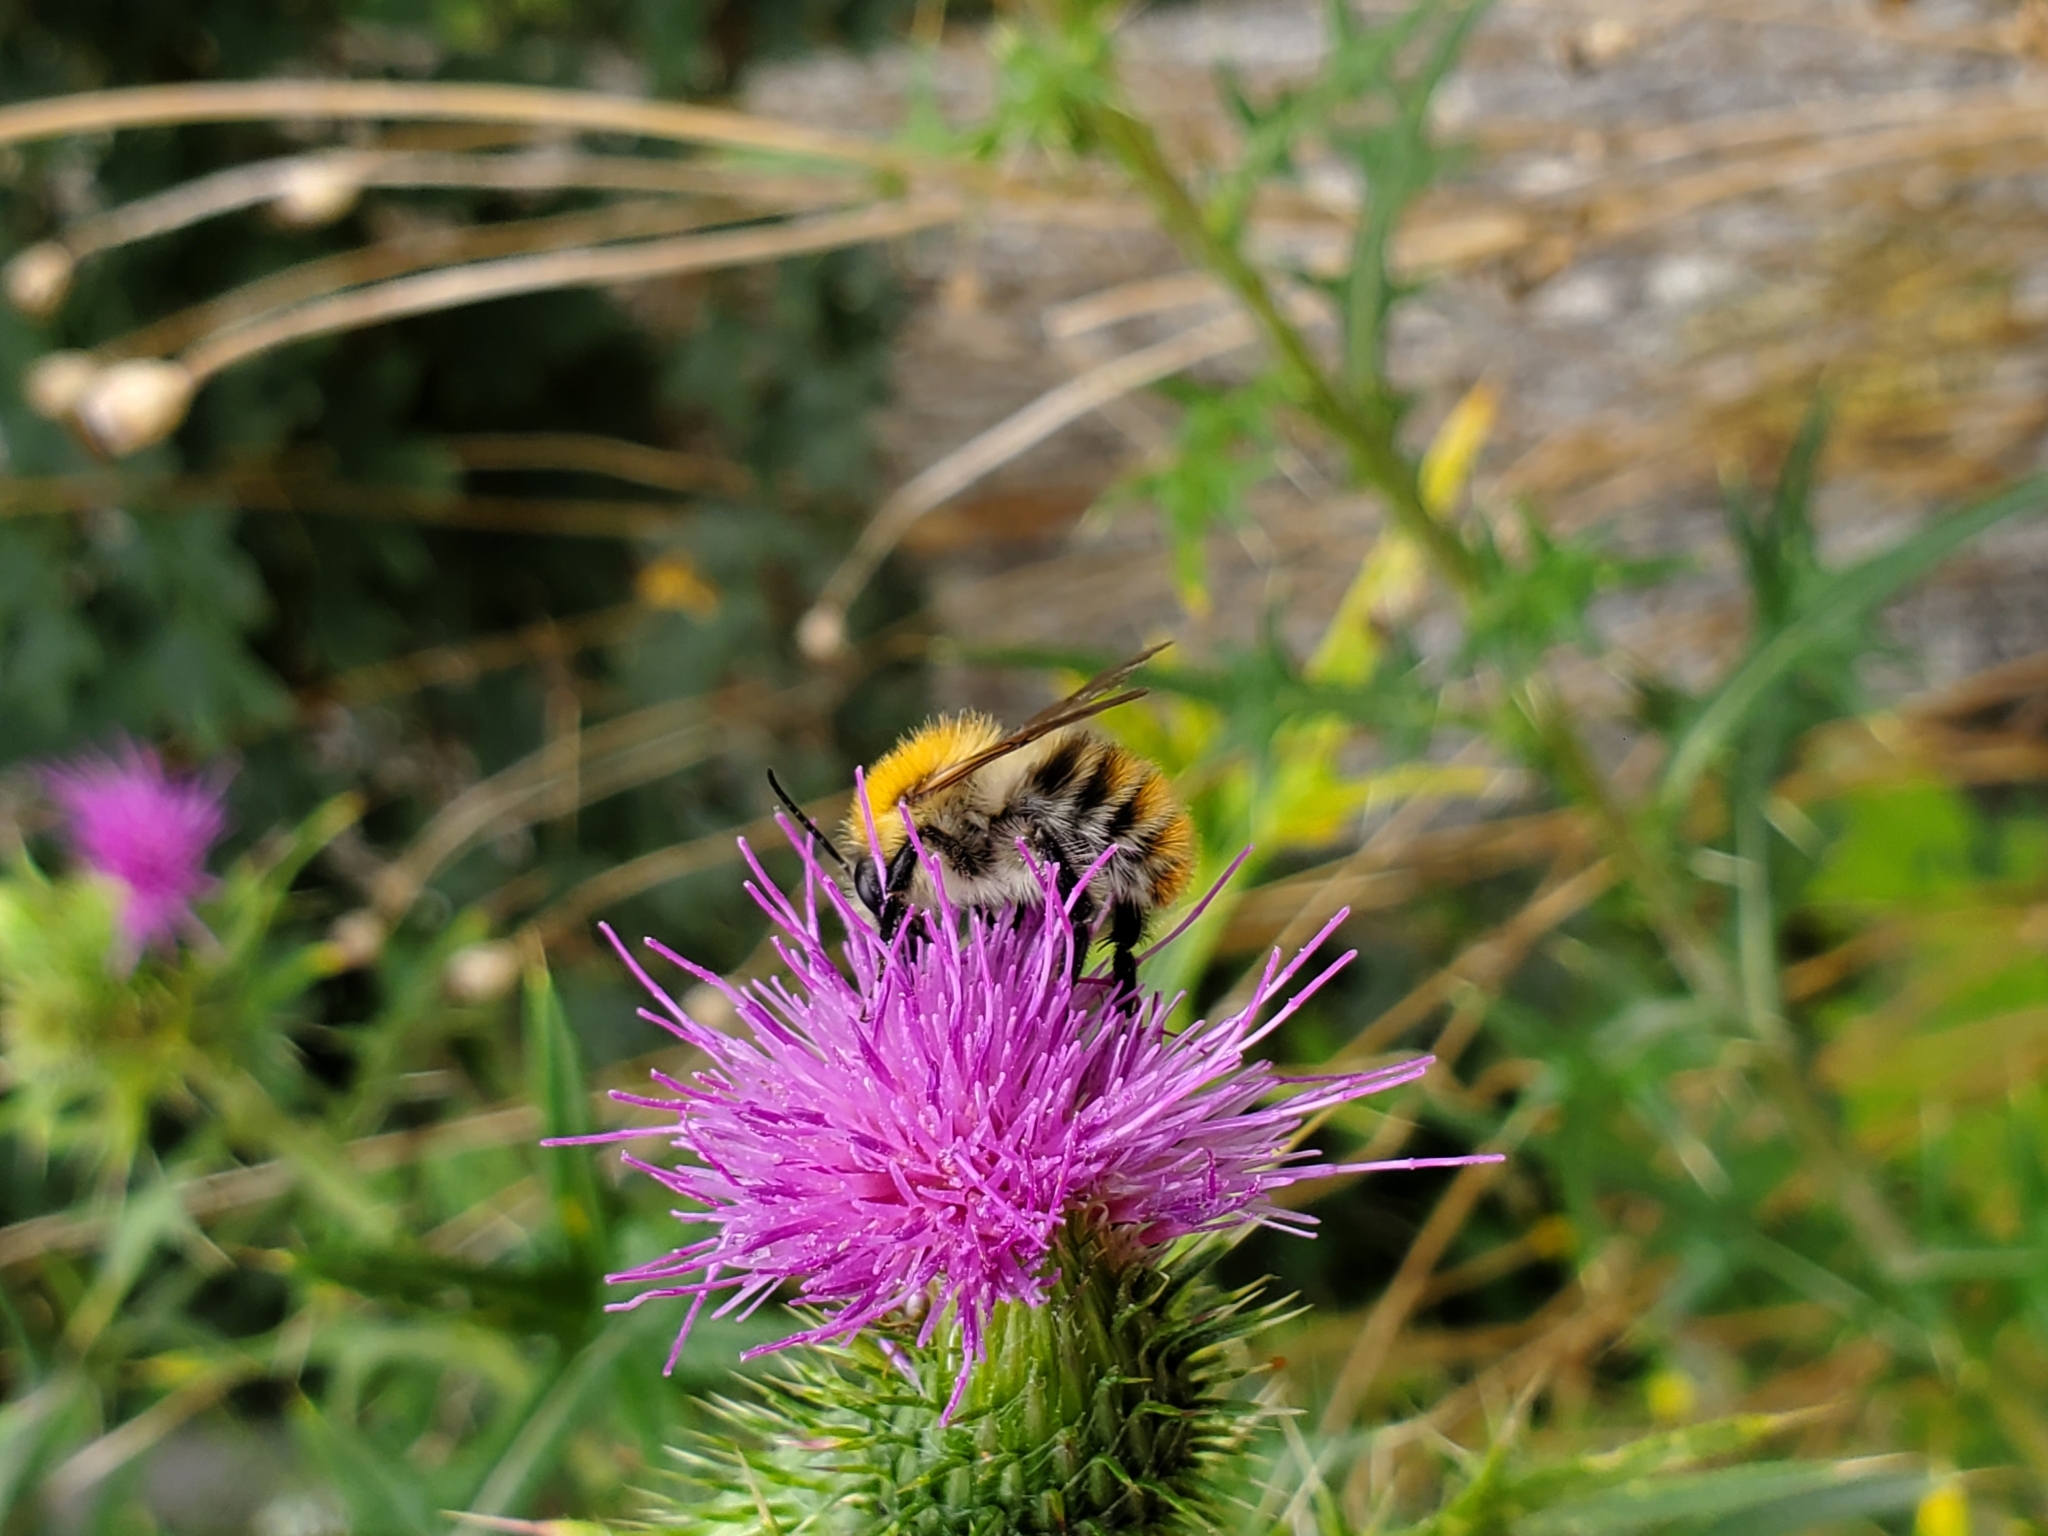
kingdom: Animalia
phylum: Arthropoda
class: Insecta
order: Hymenoptera
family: Apidae
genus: Bombus
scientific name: Bombus pascuorum
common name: Common carder bee
